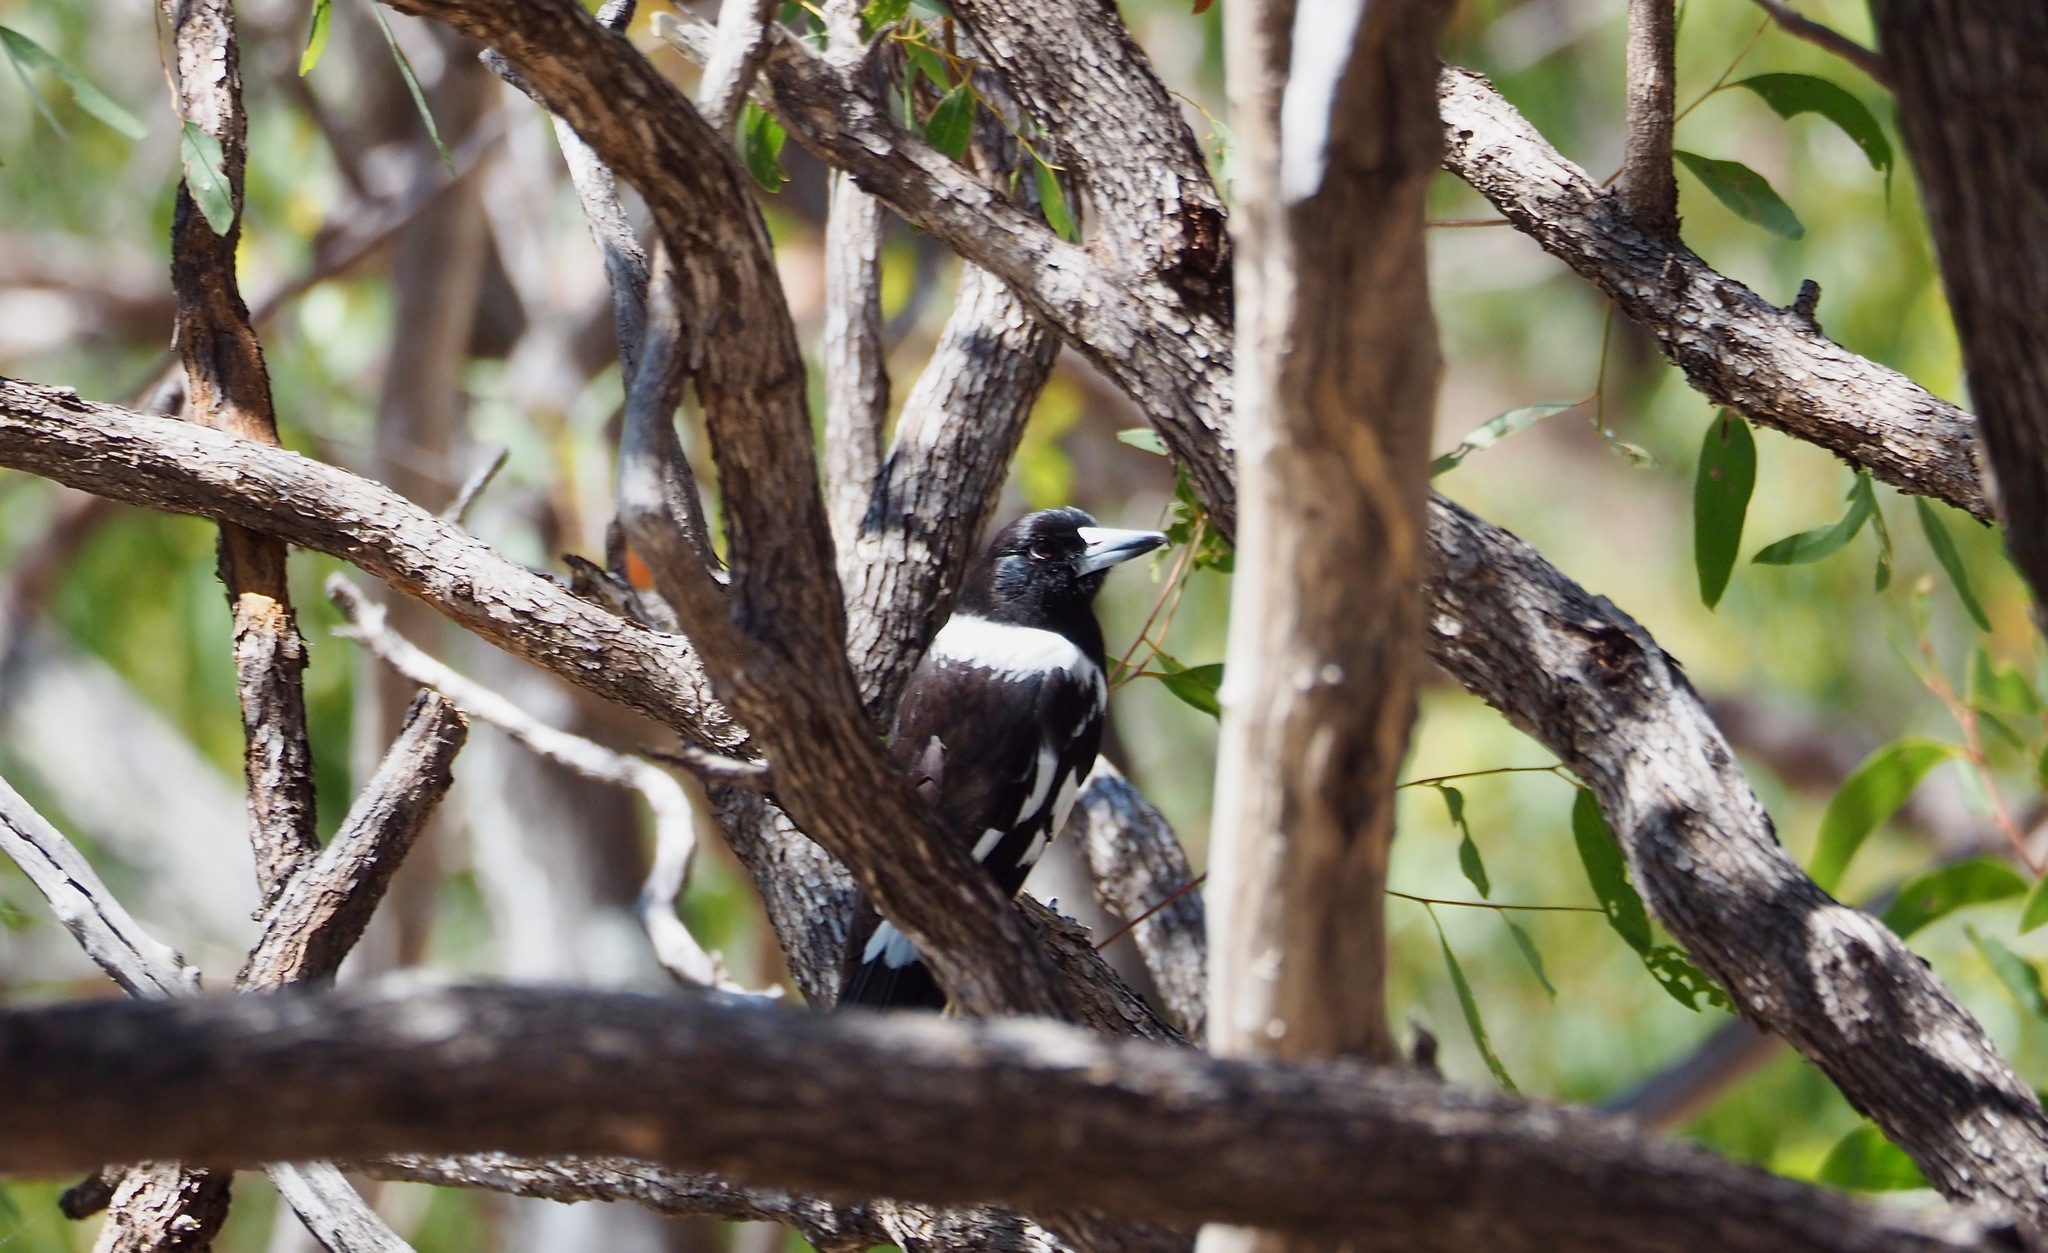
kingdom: Animalia
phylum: Chordata
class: Aves
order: Passeriformes
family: Cracticidae
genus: Cracticus
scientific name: Cracticus nigrogularis
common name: Pied butcherbird
